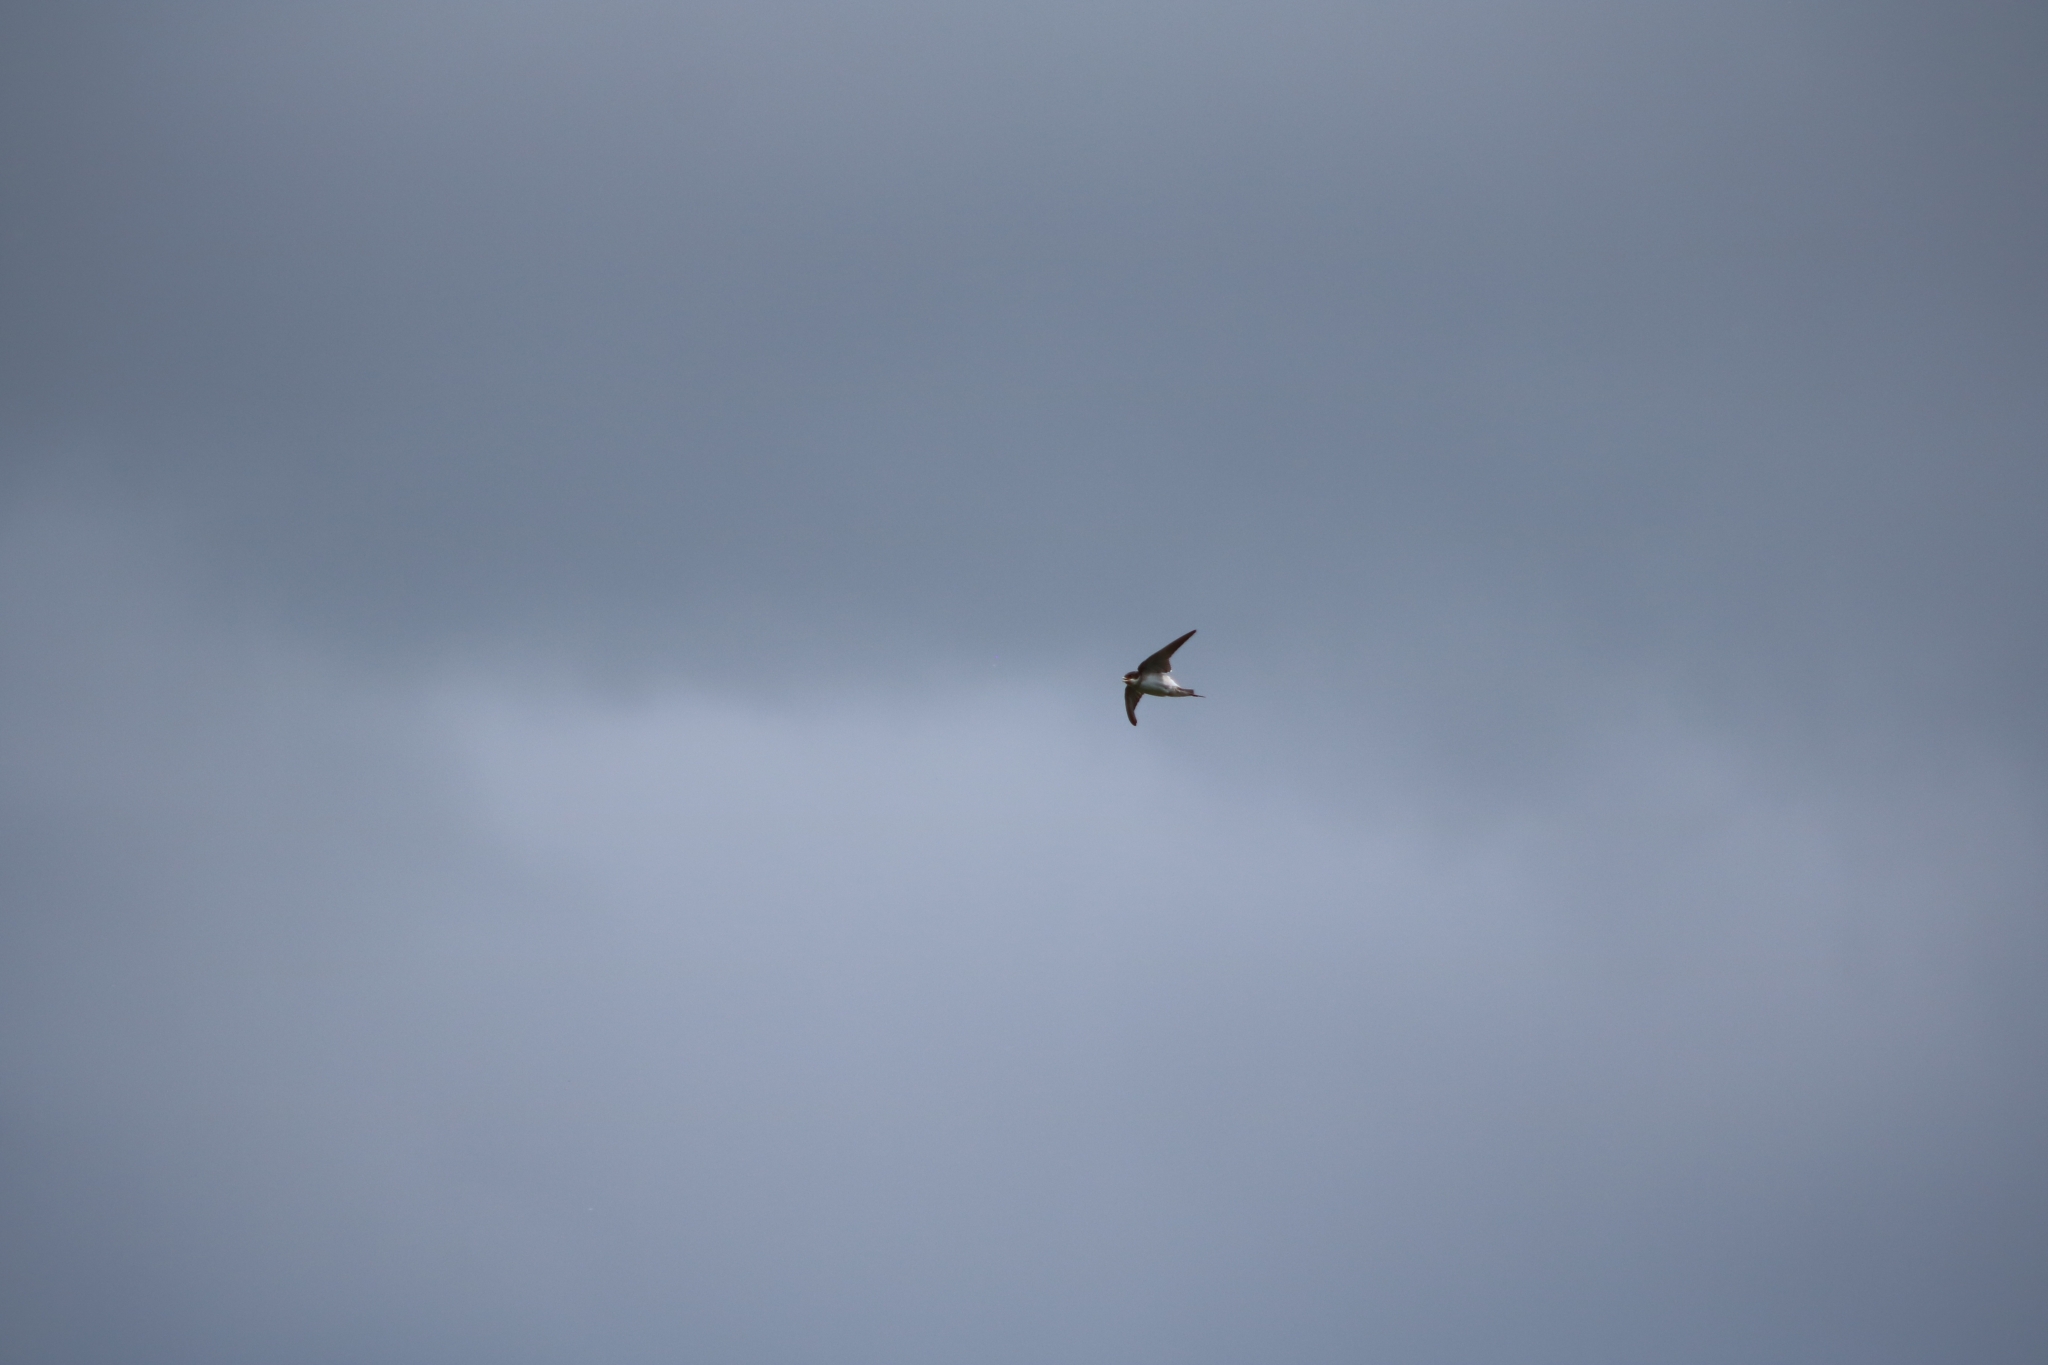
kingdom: Animalia
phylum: Chordata
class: Aves
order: Passeriformes
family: Hirundinidae
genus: Riparia
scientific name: Riparia riparia
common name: Sand martin
